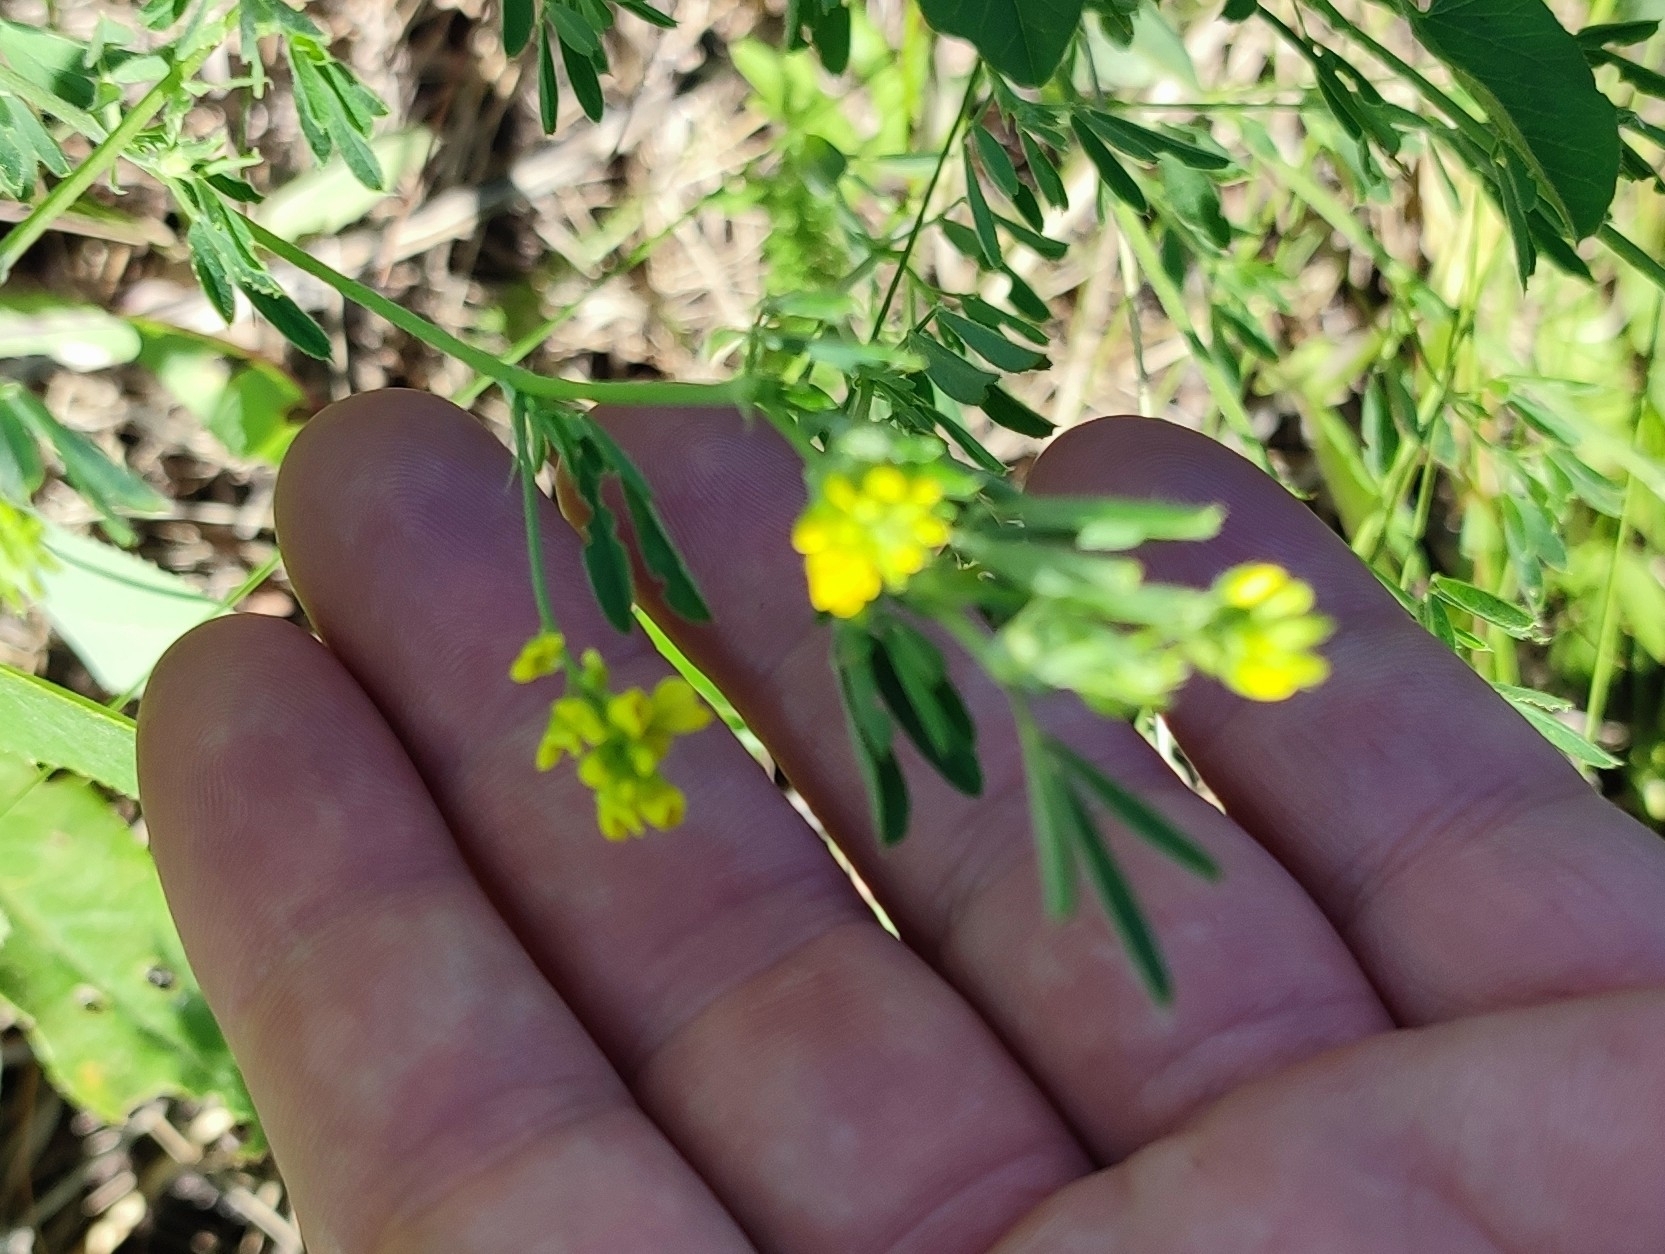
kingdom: Plantae
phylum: Tracheophyta
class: Magnoliopsida
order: Fabales
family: Fabaceae
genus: Medicago
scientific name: Medicago falcata
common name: Sickle medick
